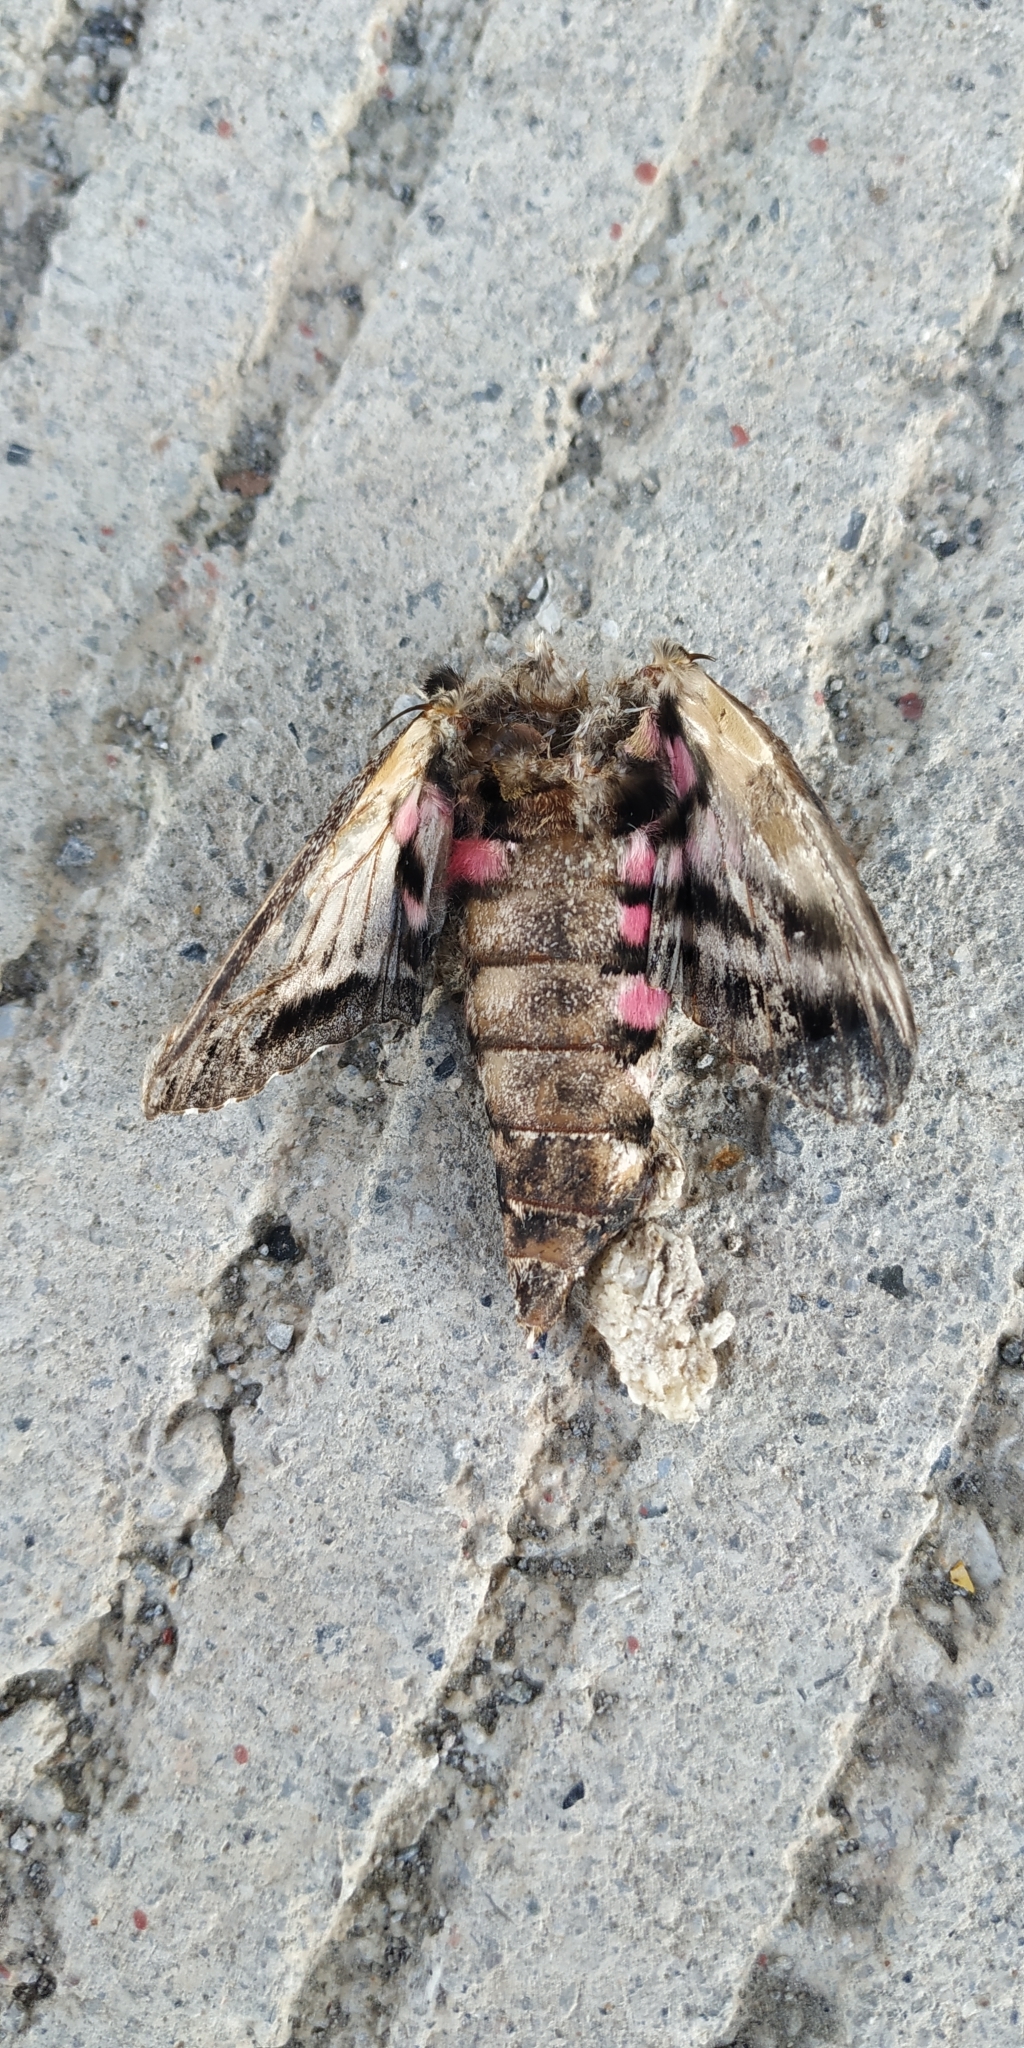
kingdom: Animalia
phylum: Arthropoda
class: Insecta
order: Lepidoptera
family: Sphingidae
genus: Agrius
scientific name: Agrius cingulata
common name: Pink-spotted hawkmoth
